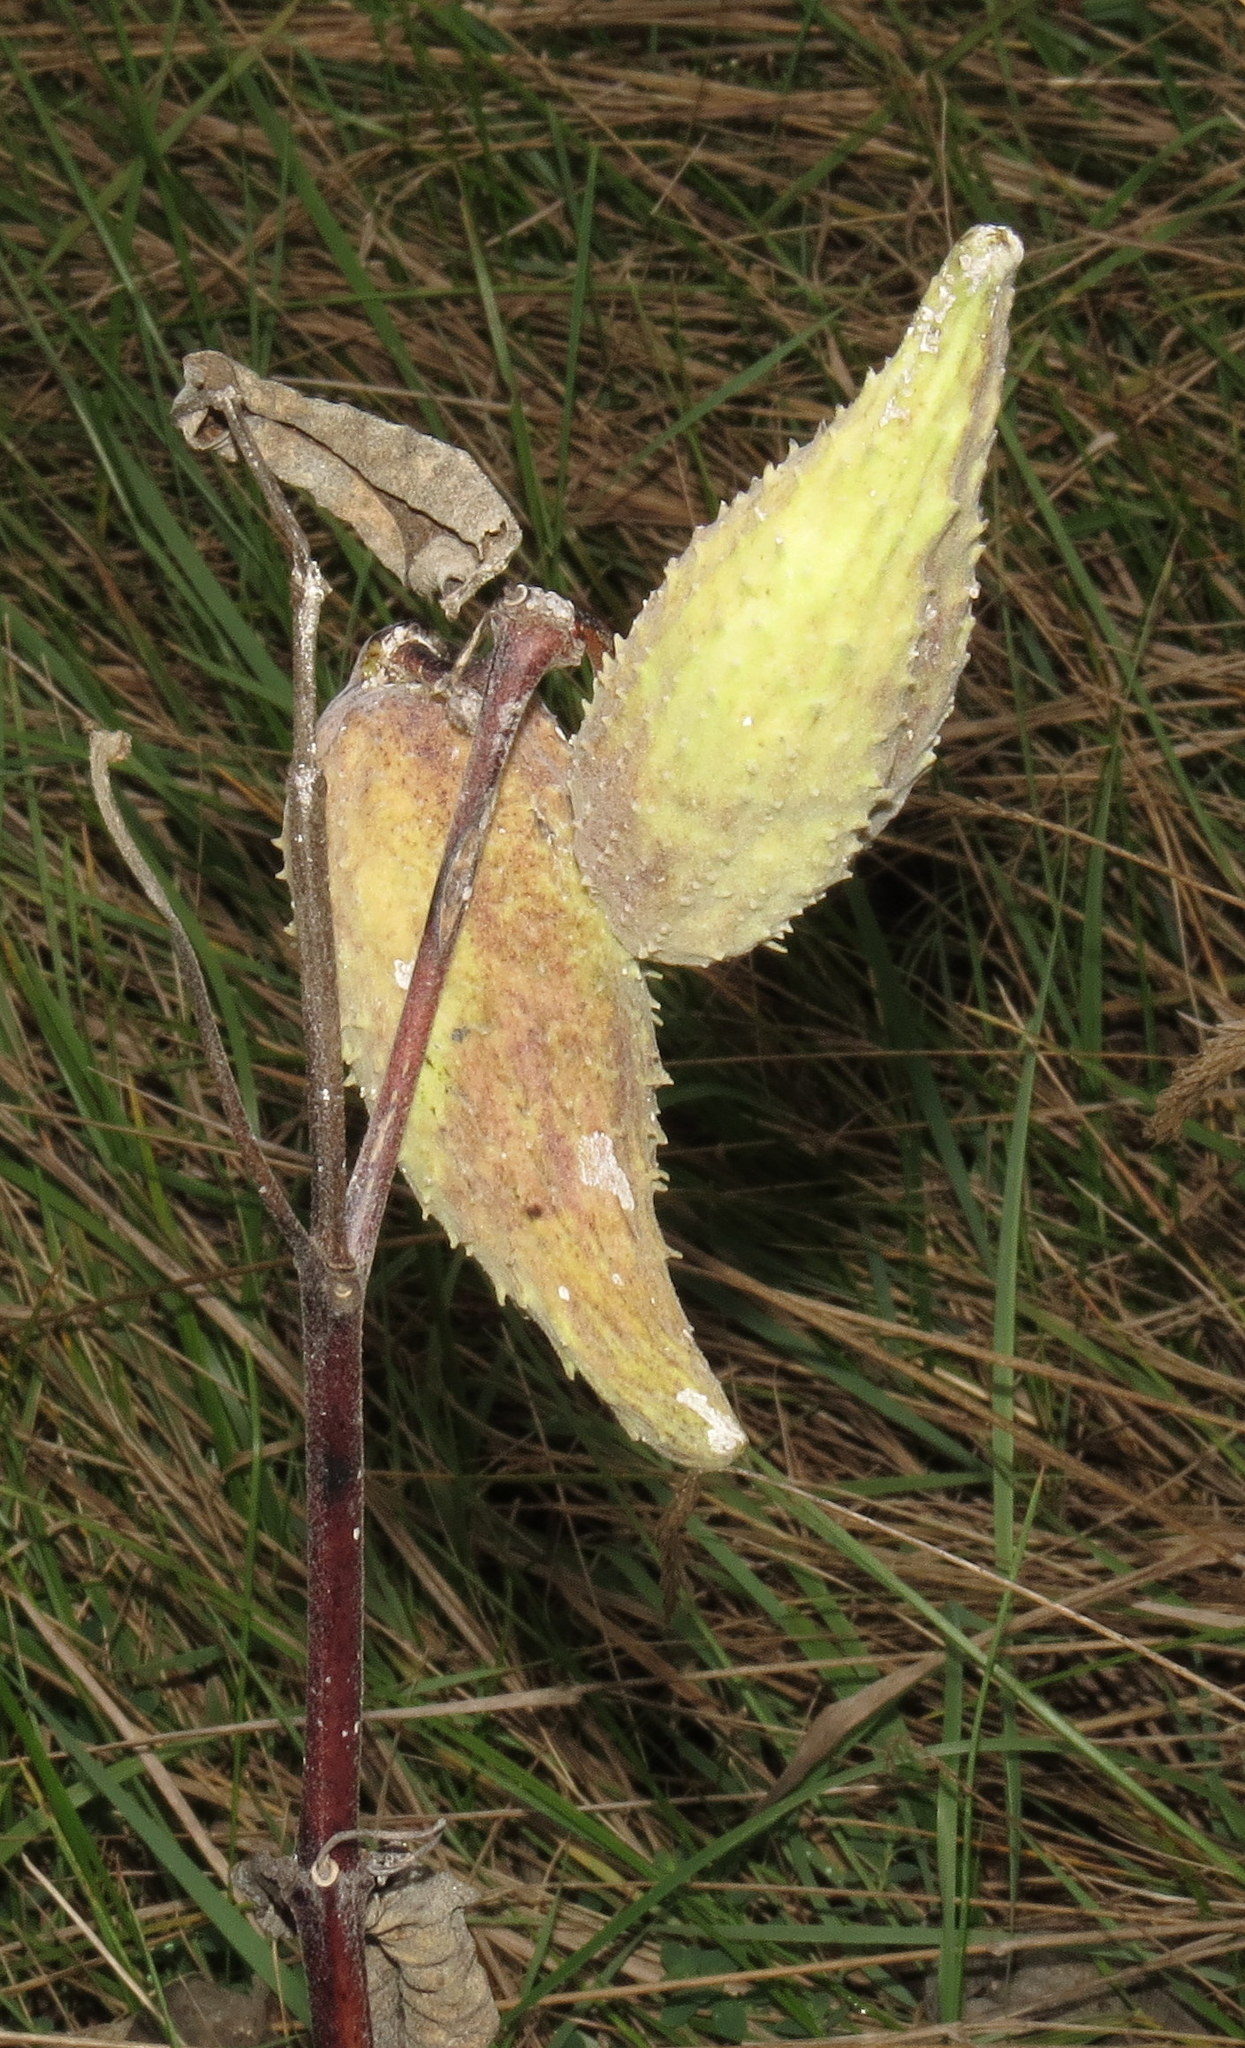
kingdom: Plantae
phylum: Tracheophyta
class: Magnoliopsida
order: Gentianales
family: Apocynaceae
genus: Asclepias
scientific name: Asclepias syriaca
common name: Common milkweed
